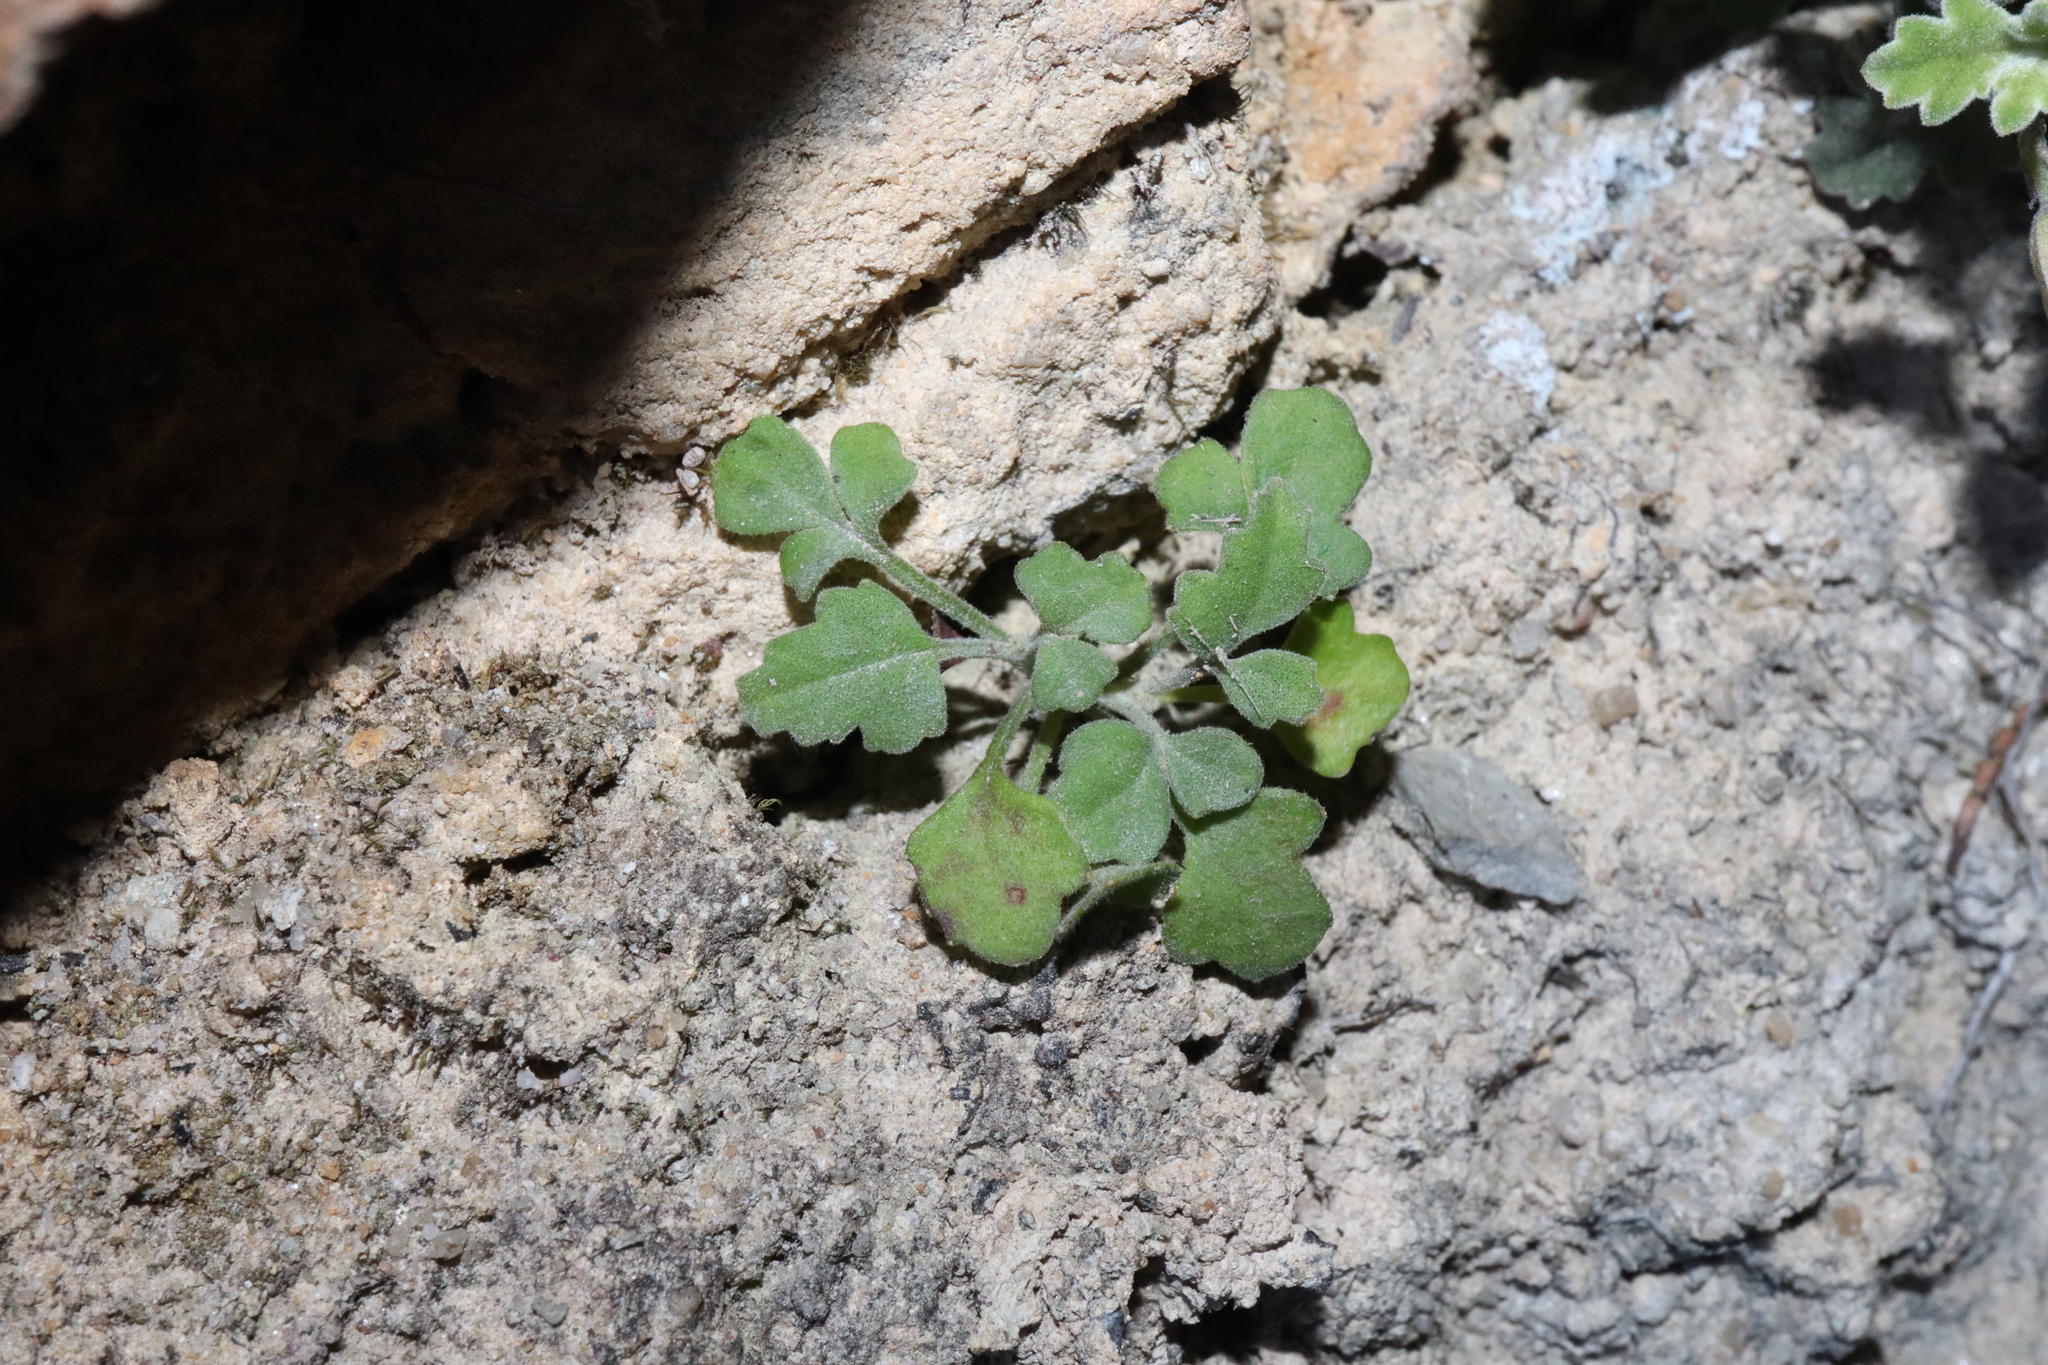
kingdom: Plantae
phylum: Tracheophyta
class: Magnoliopsida
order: Apiales
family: Apiaceae
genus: Xanthosia
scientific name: Xanthosia scopulicola
